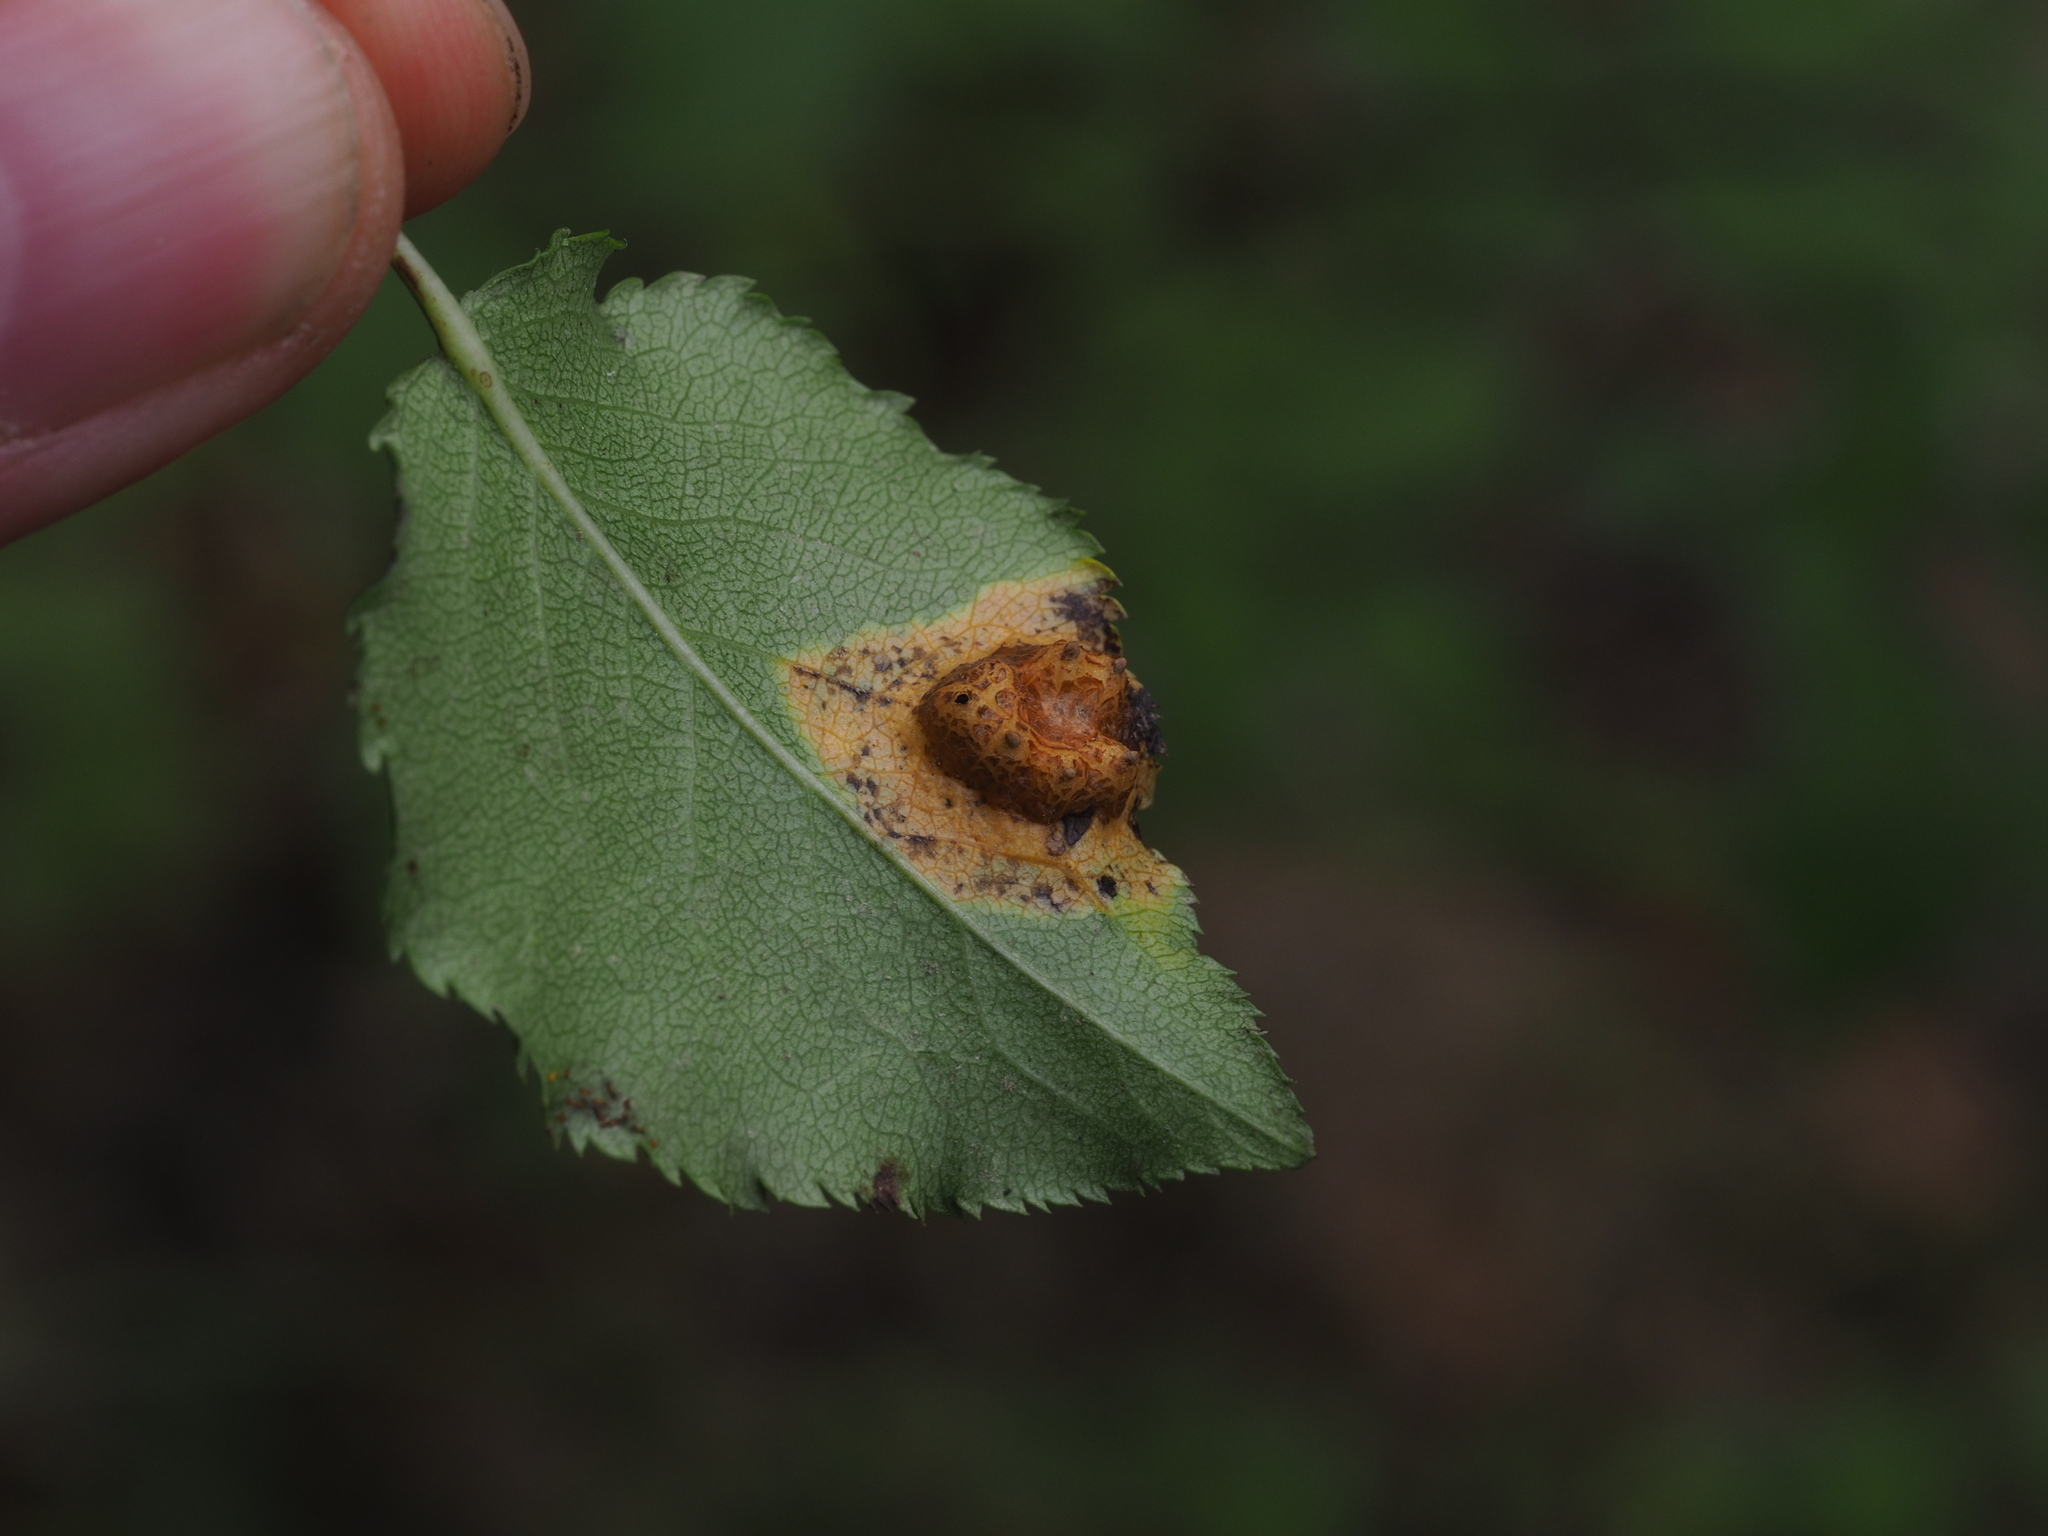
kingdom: Fungi
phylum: Basidiomycota
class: Pucciniomycetes
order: Pucciniales
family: Gymnosporangiaceae
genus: Gymnosporangium
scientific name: Gymnosporangium sabinae
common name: Pear trellis rust fungus
